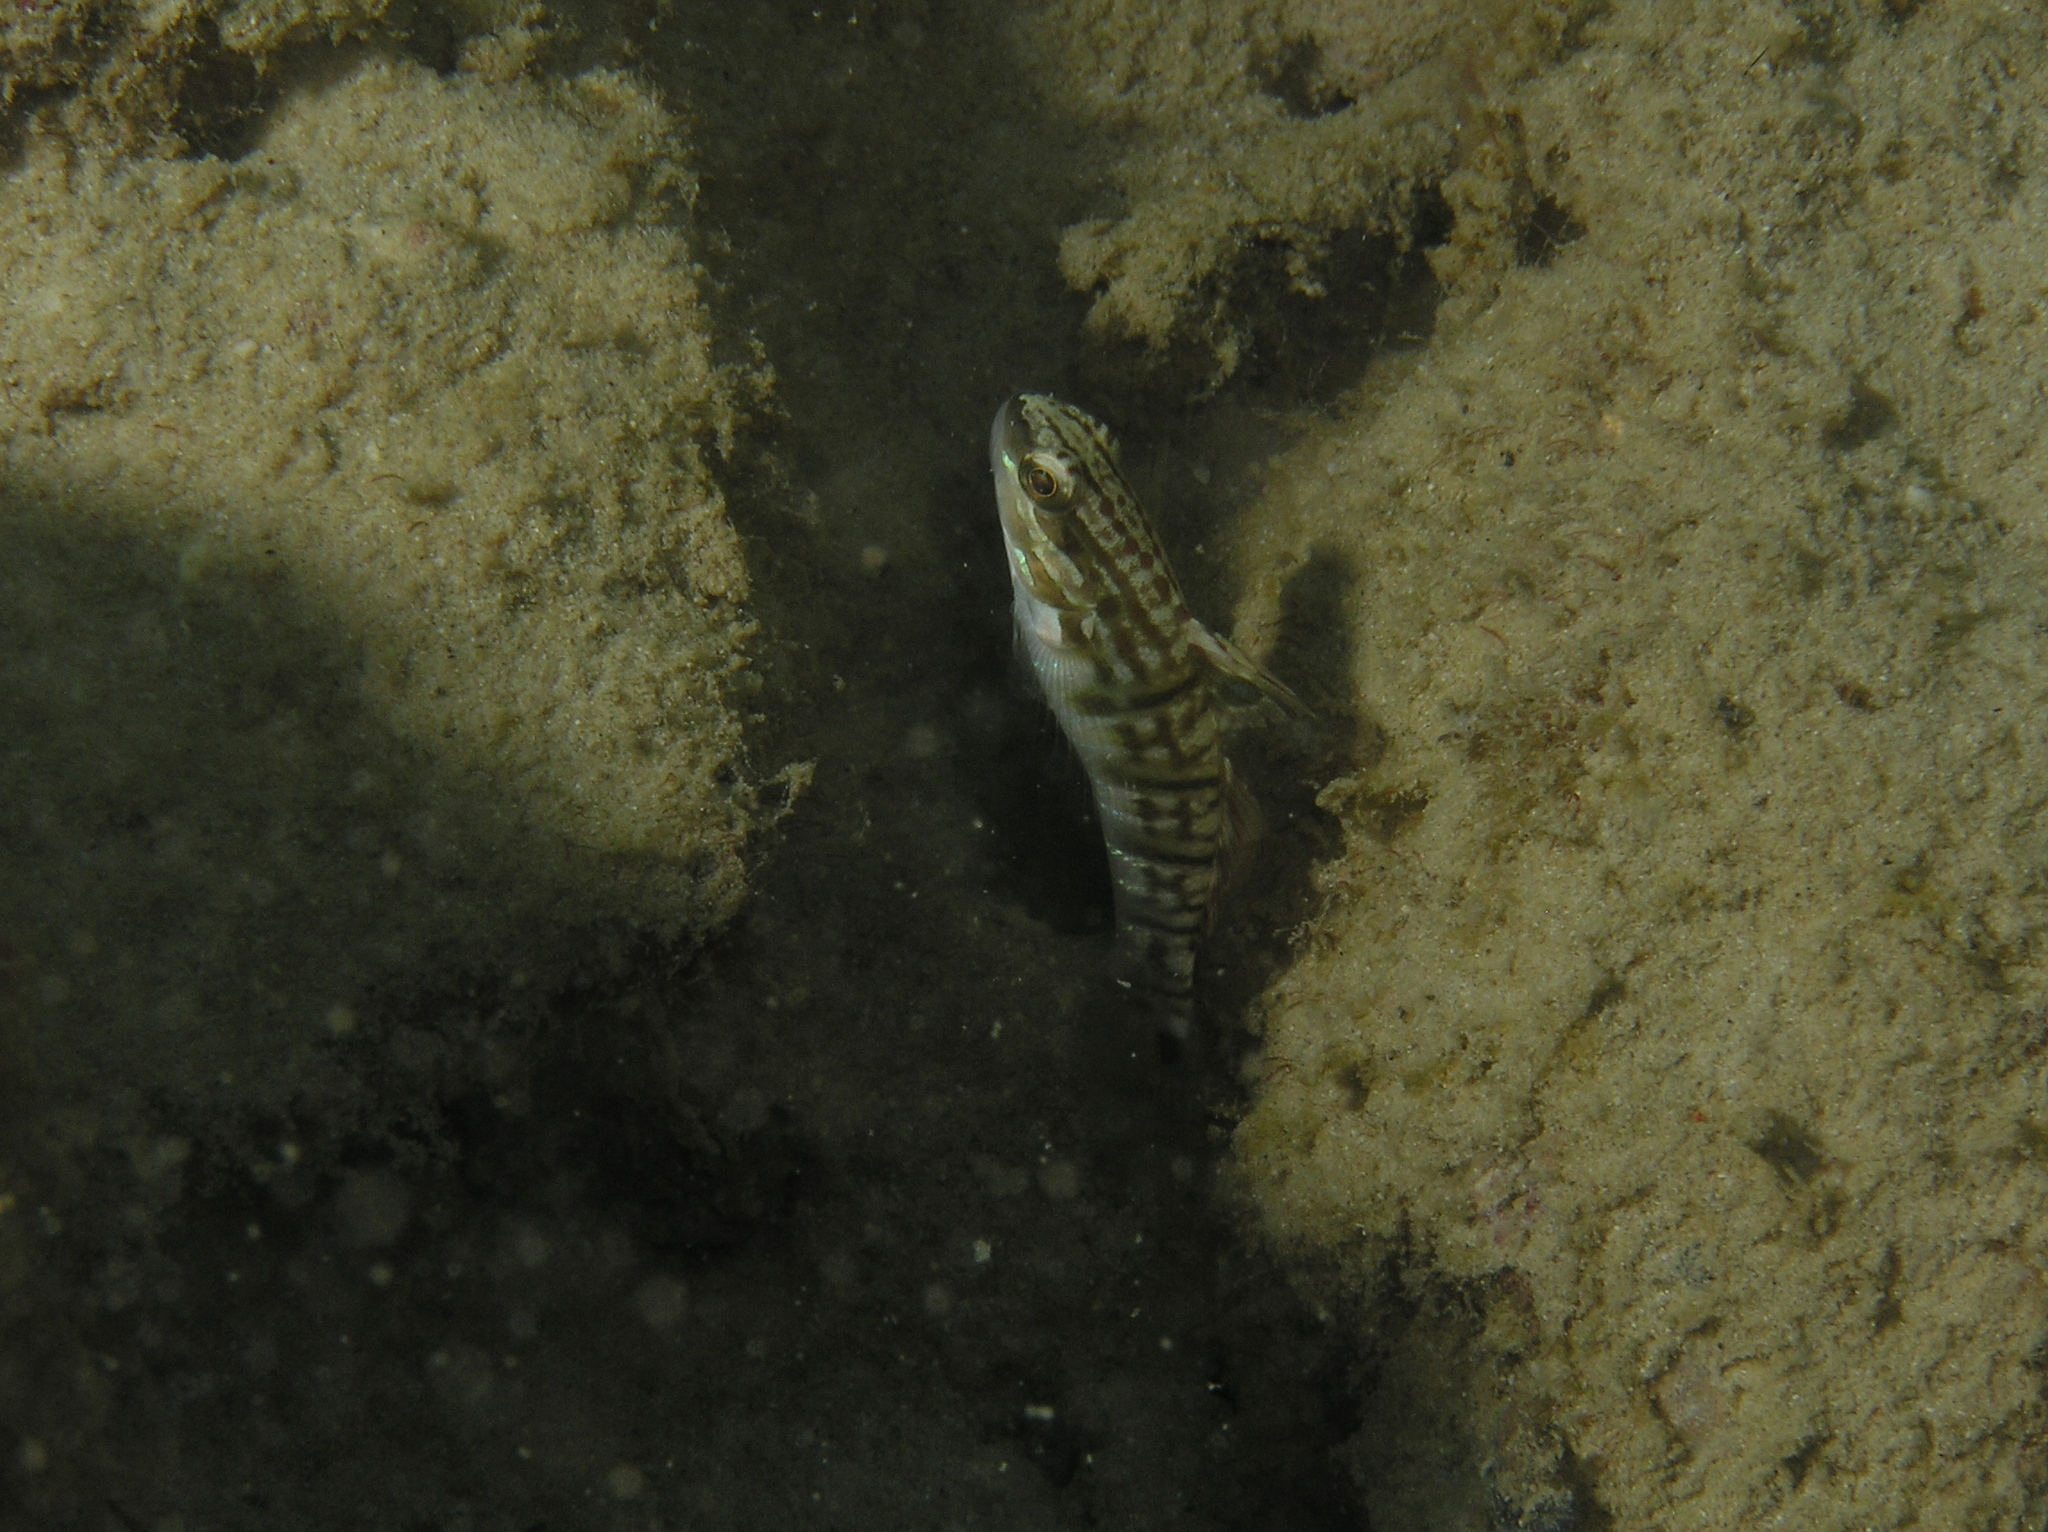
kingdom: Animalia
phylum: Chordata
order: Perciformes
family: Gobiidae
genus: Amblygobius
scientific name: Amblygobius phalaena
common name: Banded goby
